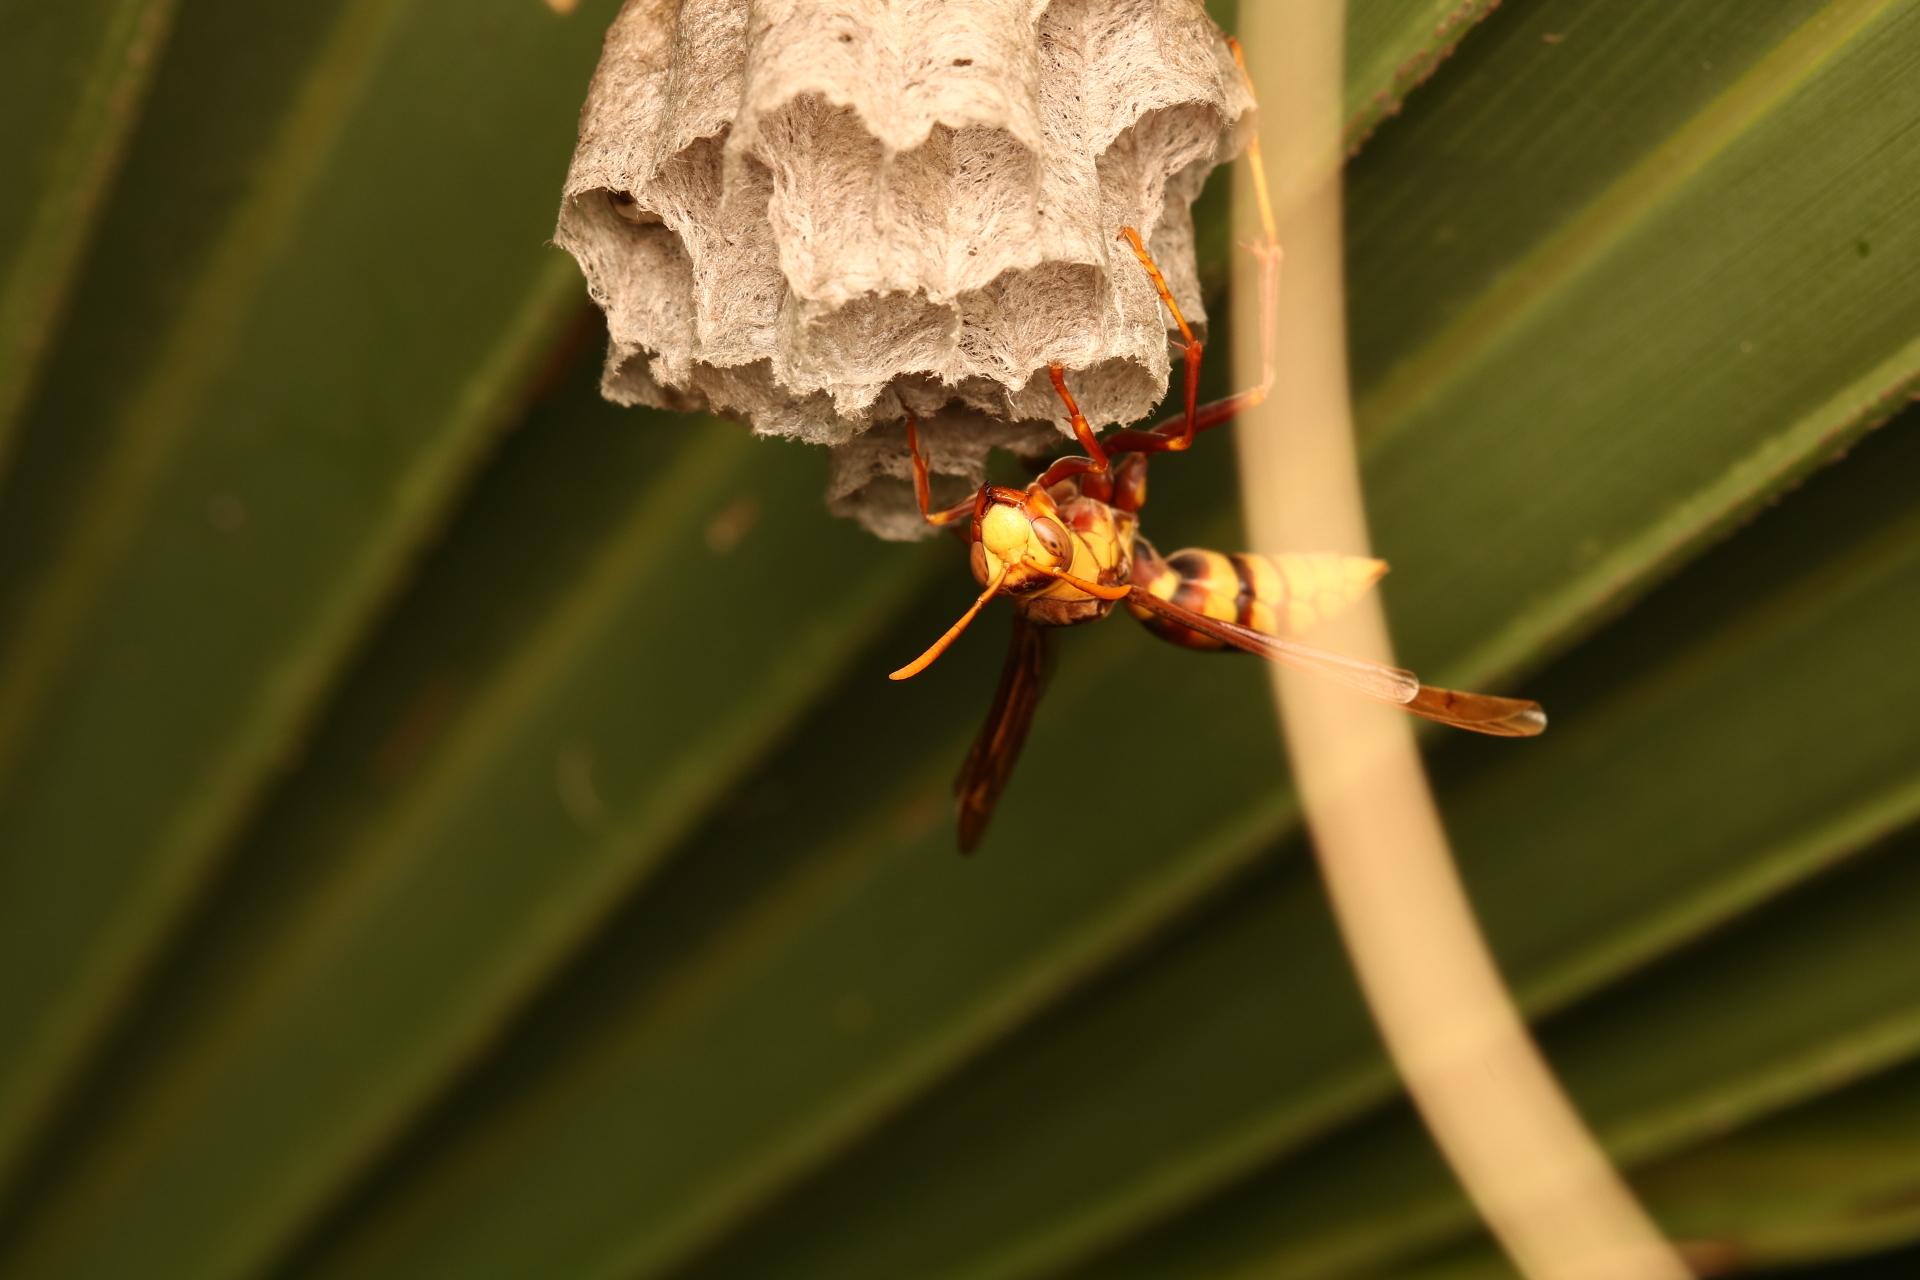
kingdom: Animalia
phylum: Arthropoda
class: Insecta
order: Hymenoptera
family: Eumenidae
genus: Polistes
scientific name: Polistes major
